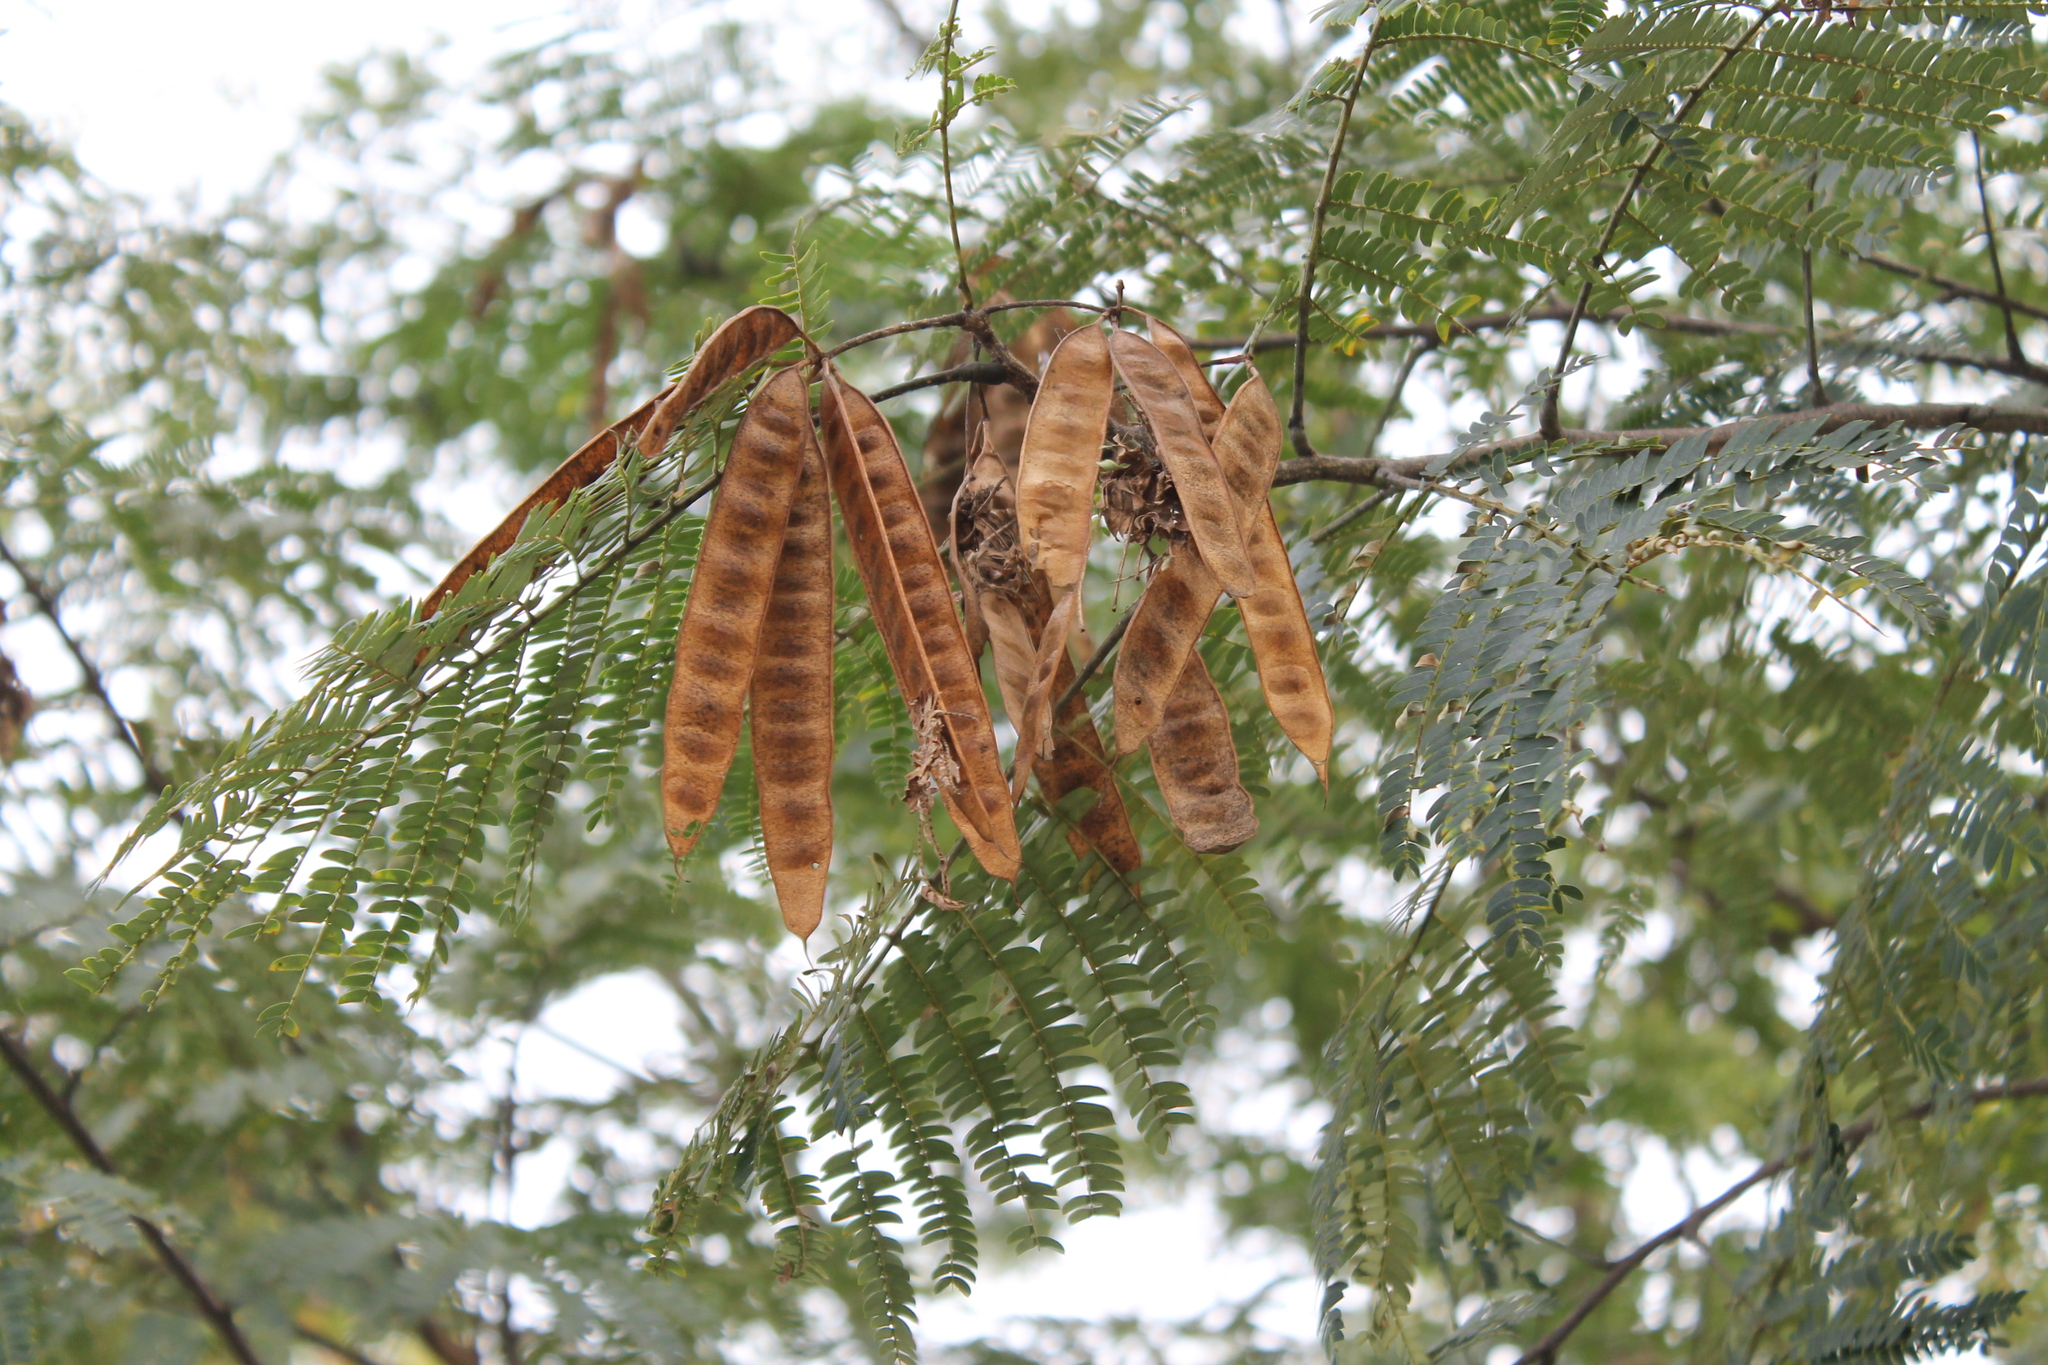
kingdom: Plantae
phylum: Tracheophyta
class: Magnoliopsida
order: Fabales
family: Fabaceae
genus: Albizia
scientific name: Albizia julibrissin
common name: Silktree
